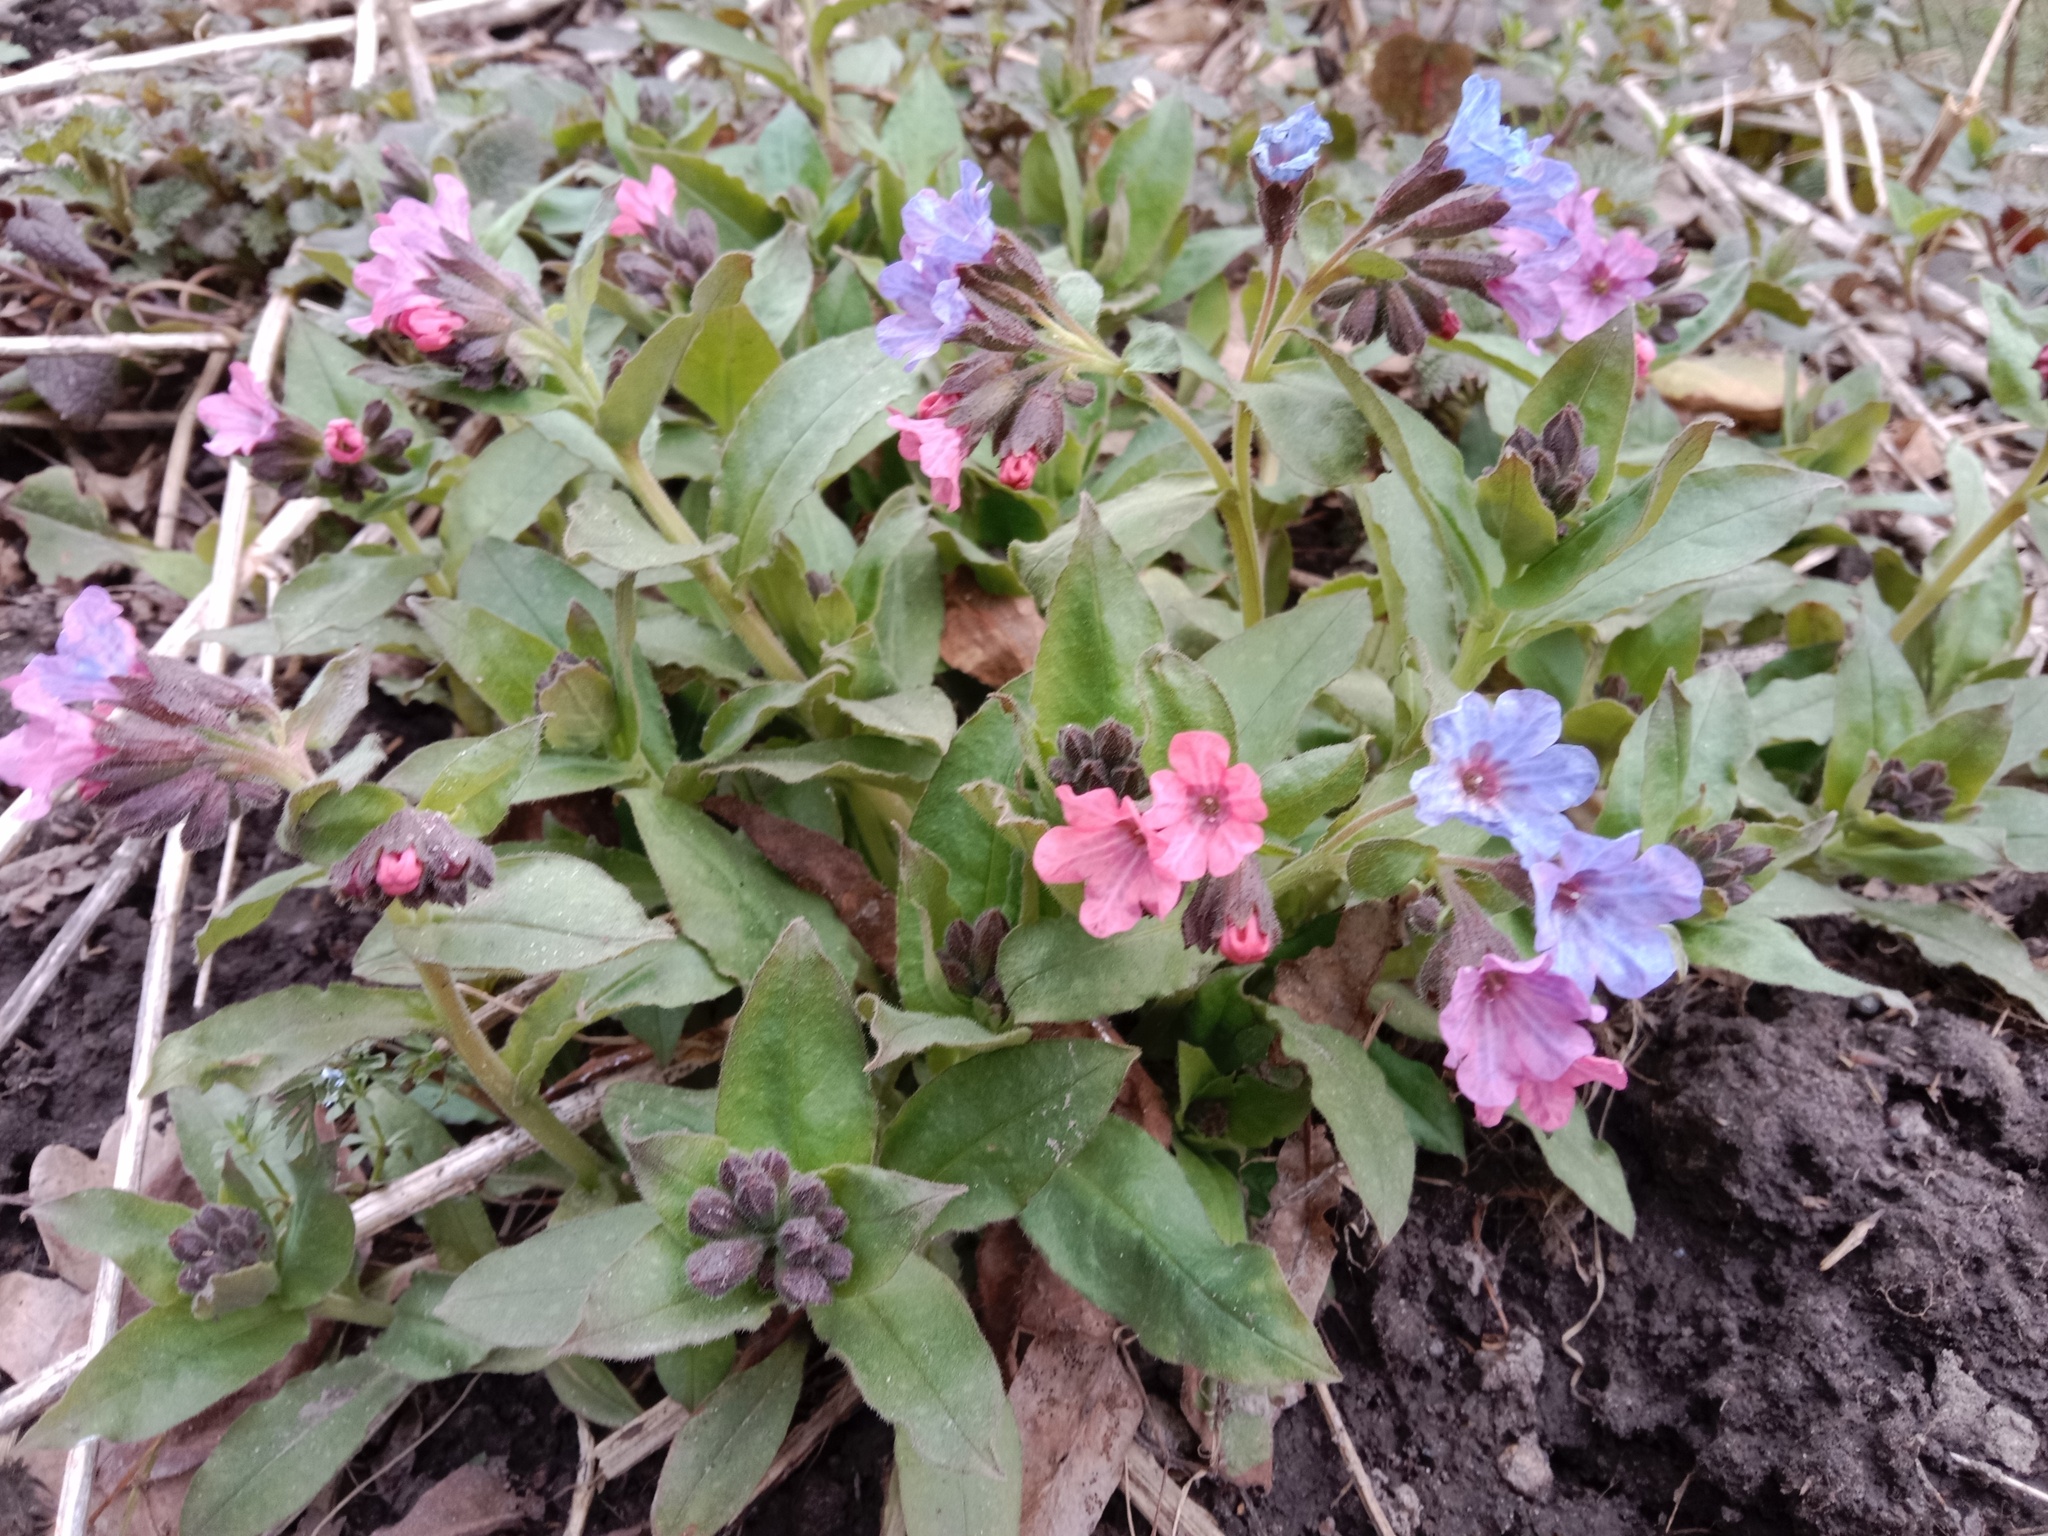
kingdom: Plantae
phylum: Tracheophyta
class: Magnoliopsida
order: Boraginales
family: Boraginaceae
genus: Pulmonaria
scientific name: Pulmonaria obscura
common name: Suffolk lungwort
